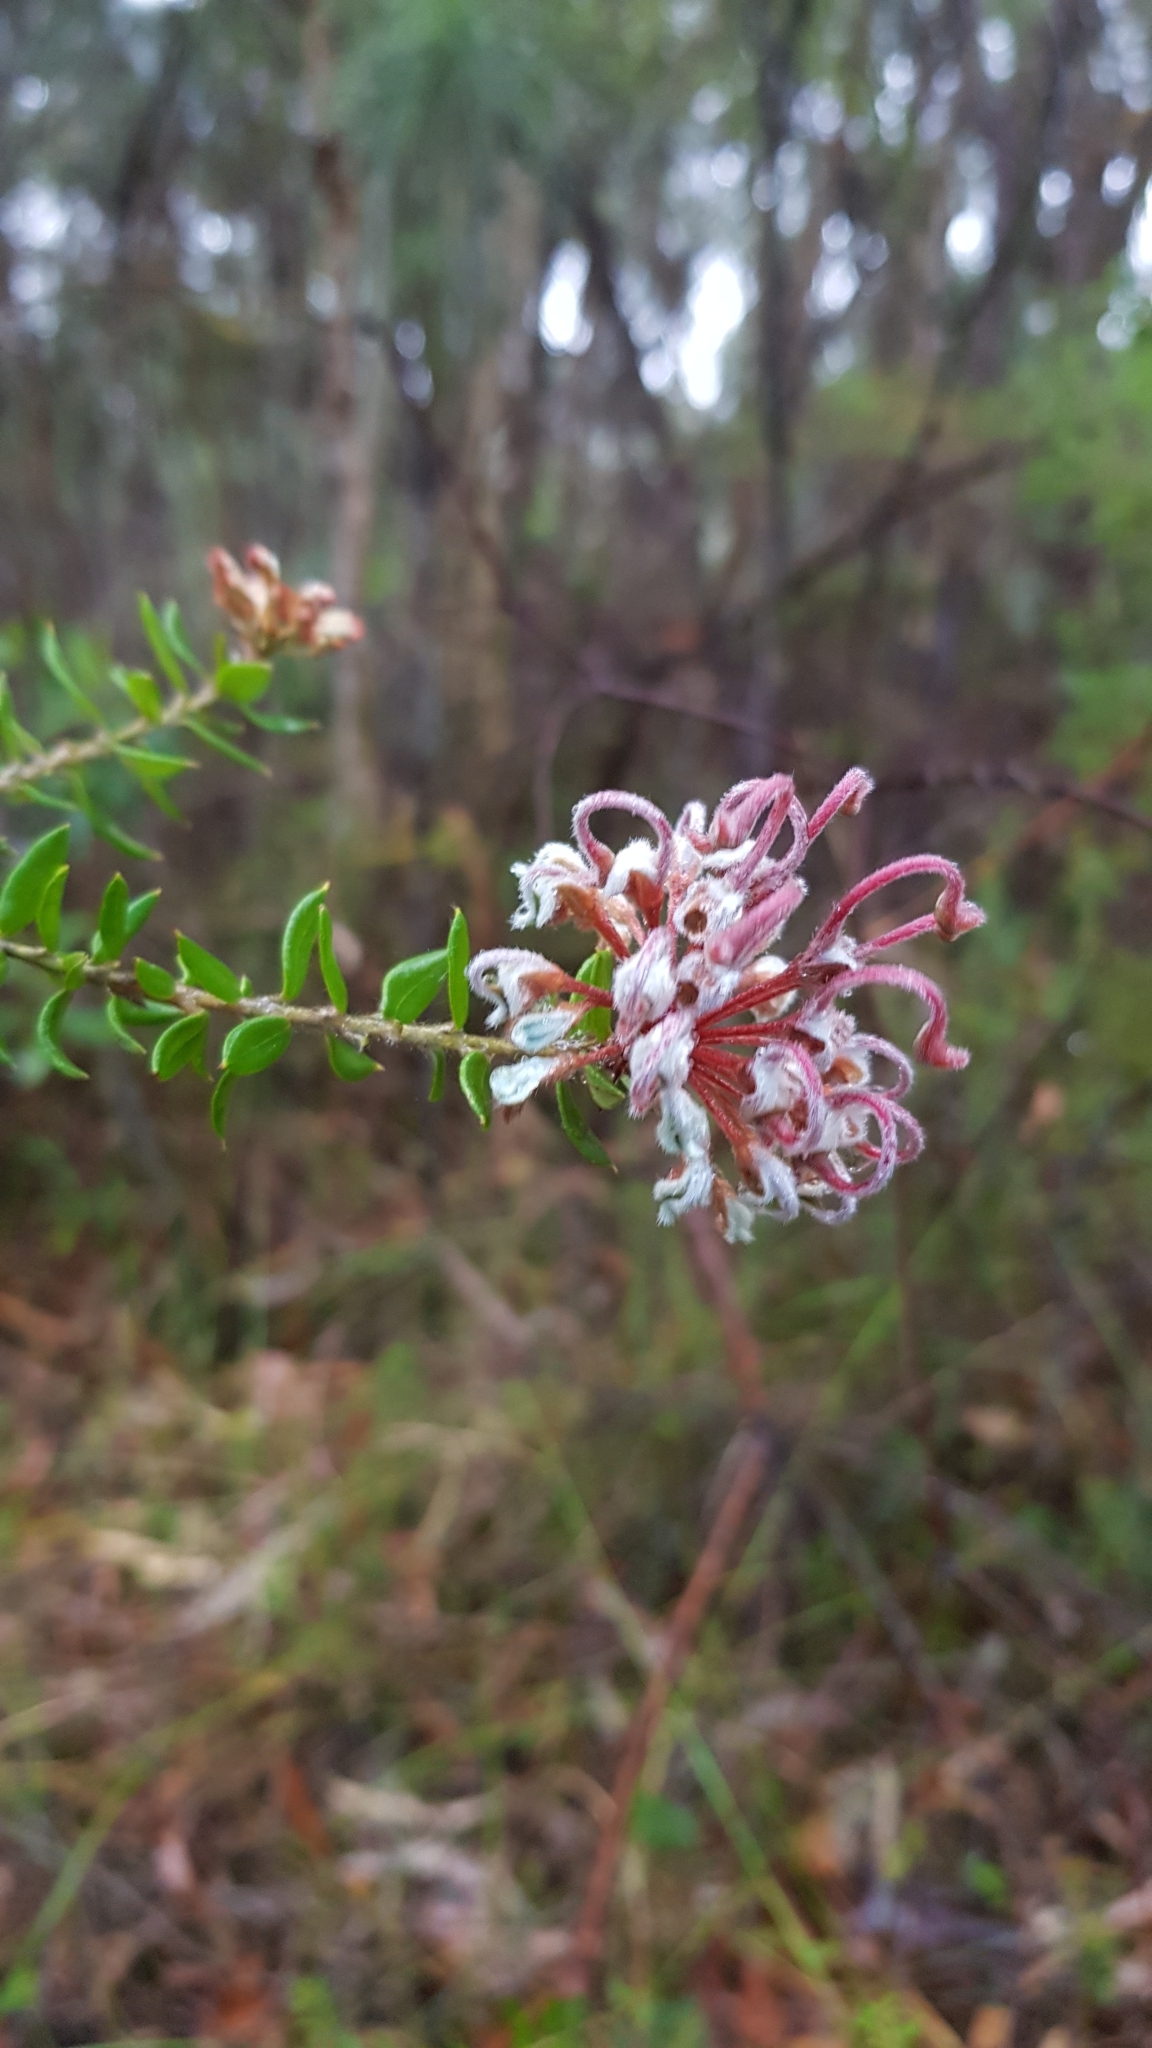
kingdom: Plantae
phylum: Tracheophyta
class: Magnoliopsida
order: Proteales
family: Proteaceae
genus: Grevillea
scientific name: Grevillea buxifolia
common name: Grey spiderflower
